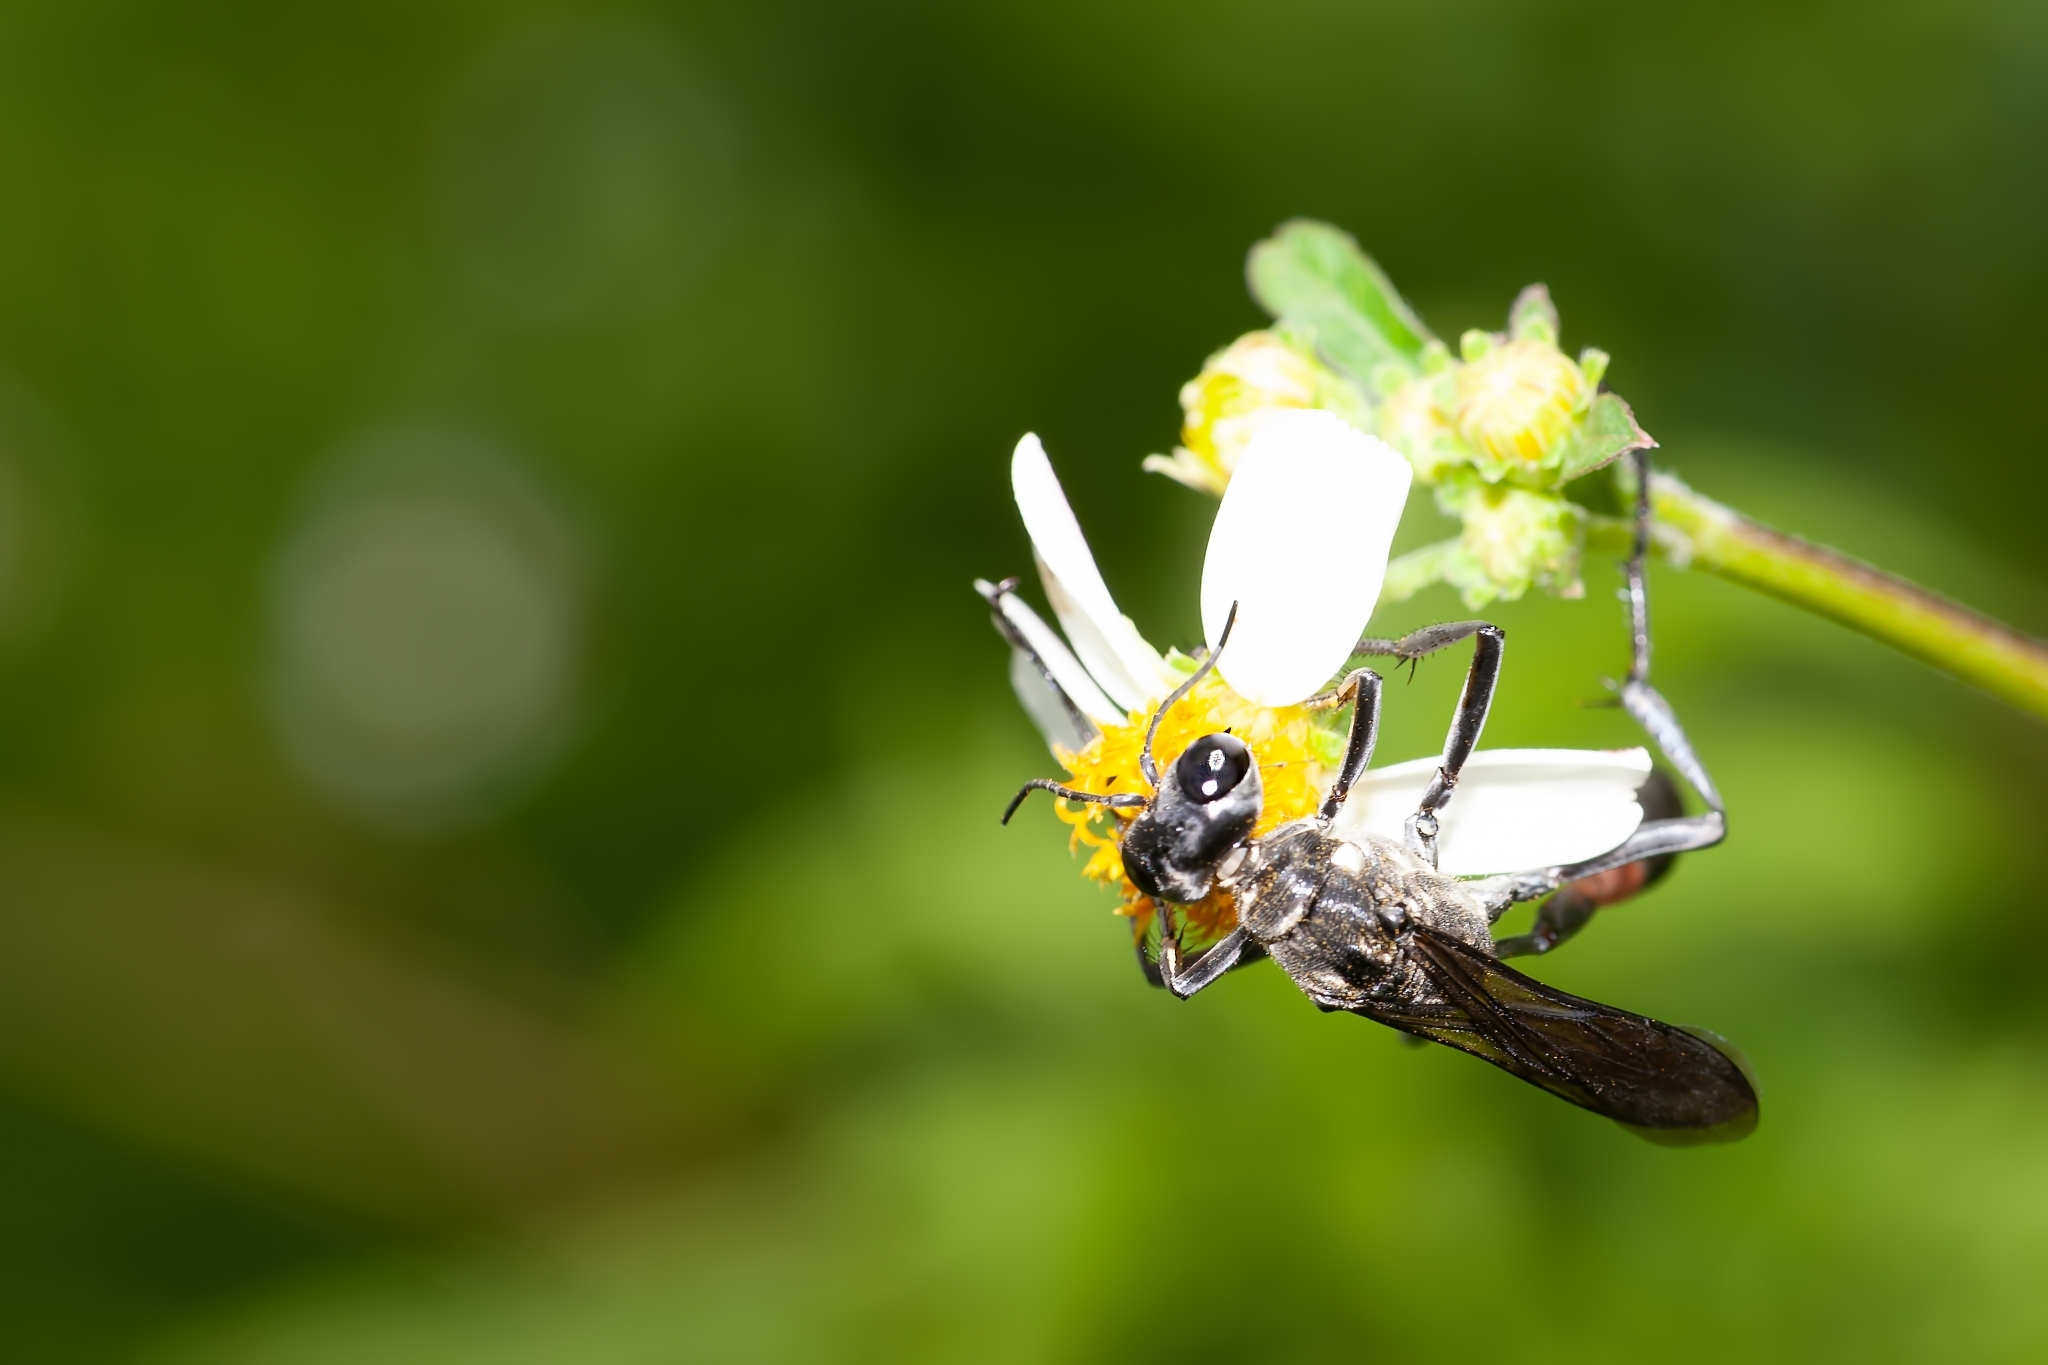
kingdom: Animalia
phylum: Arthropoda
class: Insecta
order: Hymenoptera
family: Sphecidae
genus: Ammophila
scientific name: Ammophila procera
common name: Common thread-waisted wasp
